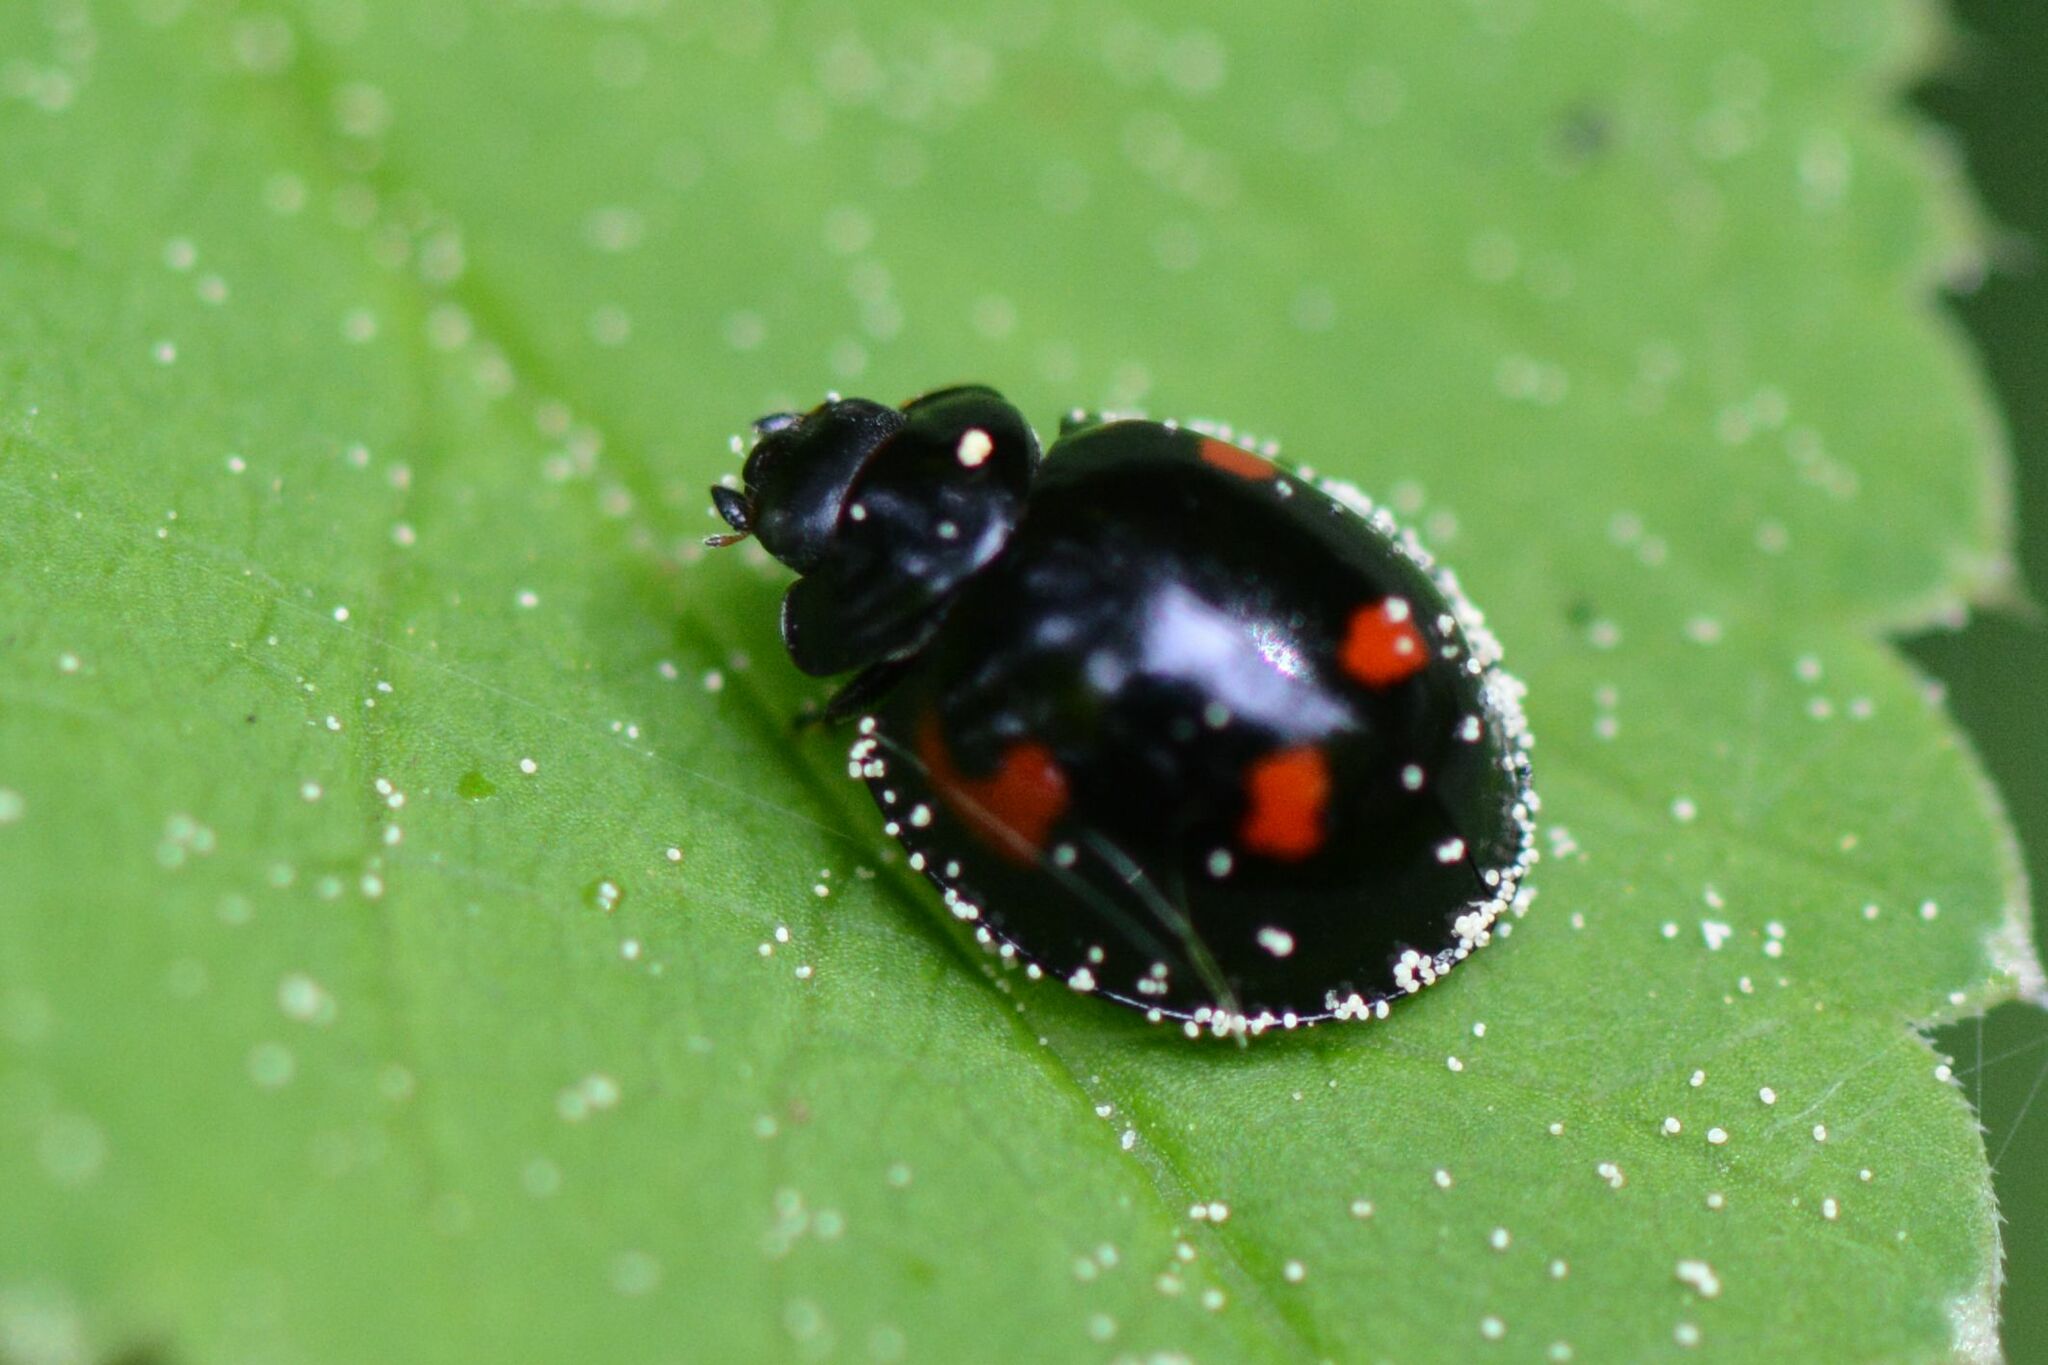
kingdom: Animalia
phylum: Arthropoda
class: Insecta
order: Coleoptera
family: Coccinellidae
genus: Brumus
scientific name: Brumus quadripustulatus
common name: Ladybird beetle
